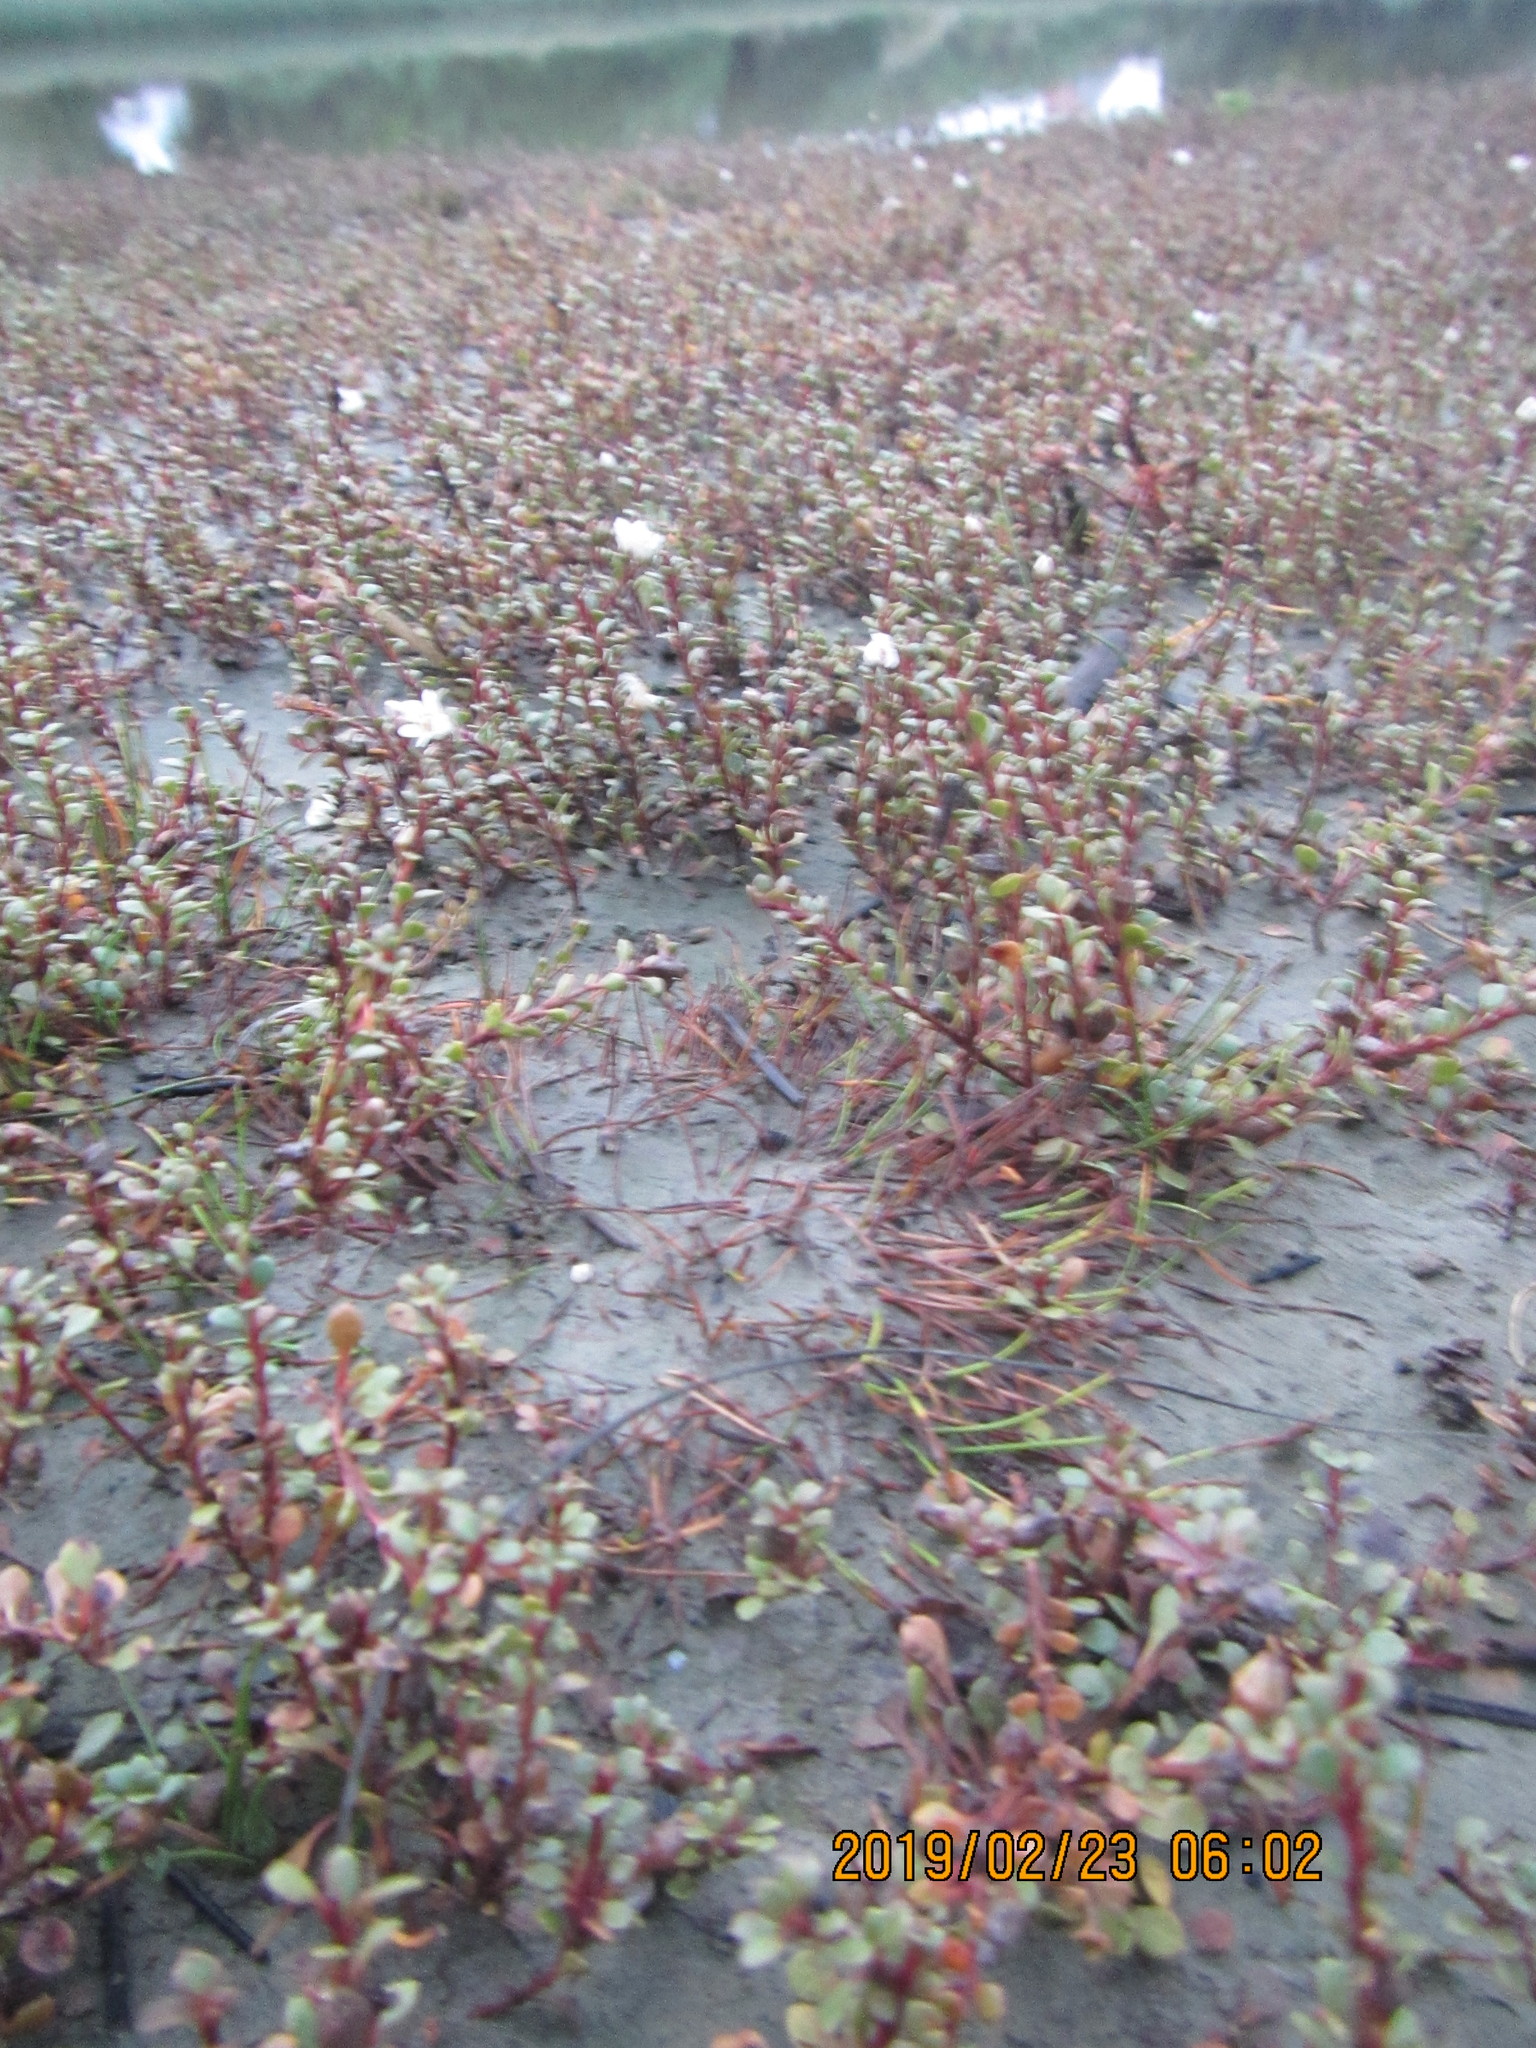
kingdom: Plantae
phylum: Tracheophyta
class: Magnoliopsida
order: Ericales
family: Primulaceae
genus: Samolus
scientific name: Samolus repens
